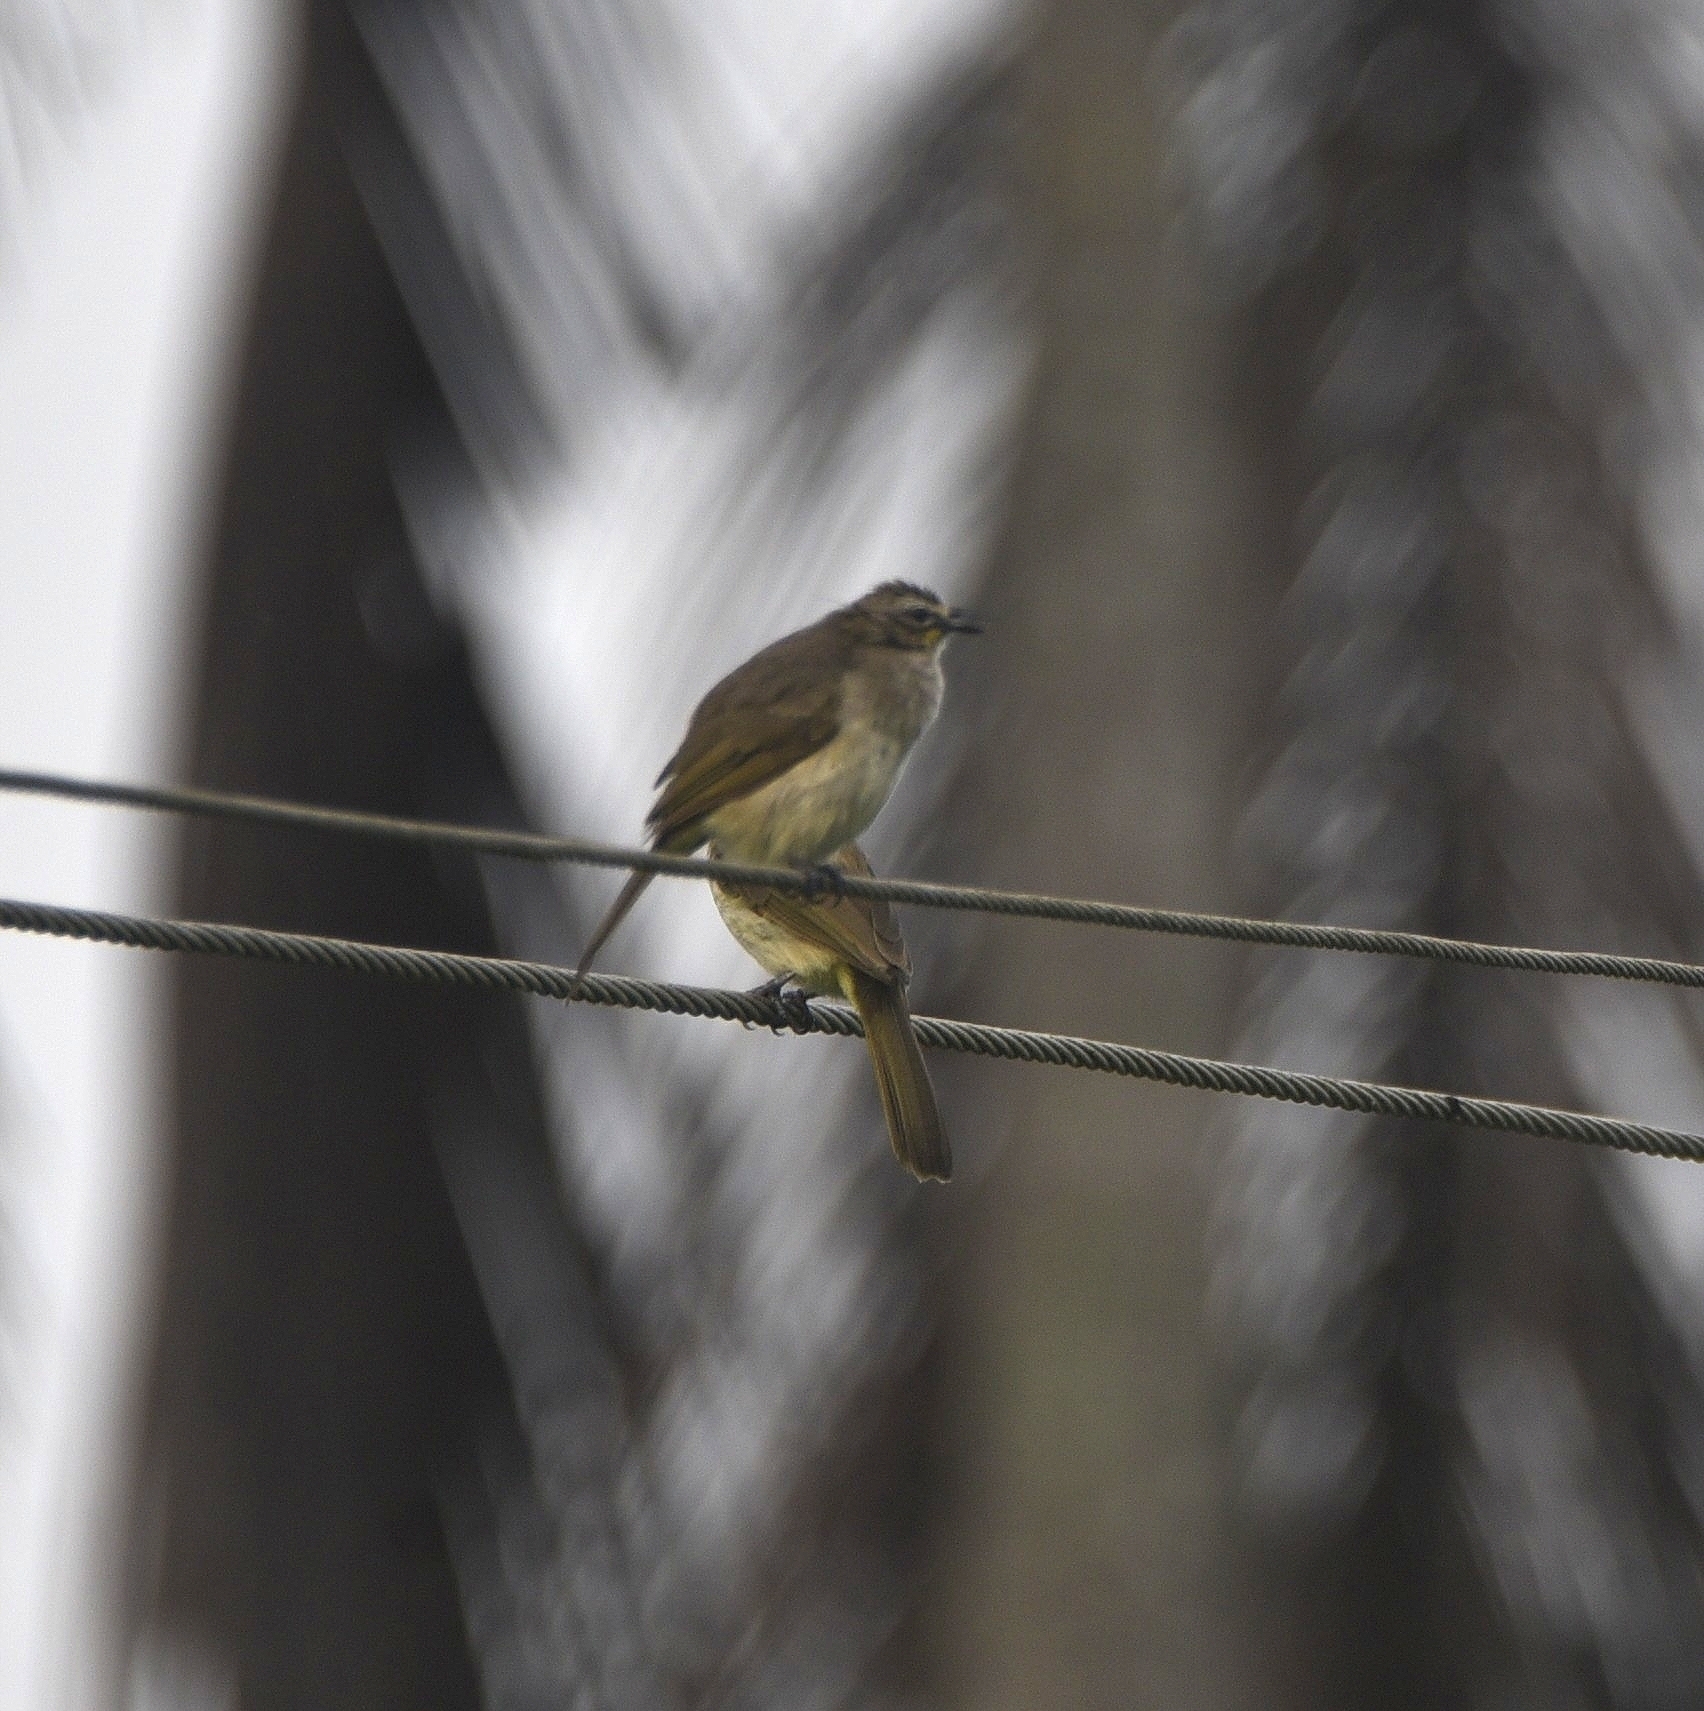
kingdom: Animalia
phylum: Chordata
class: Aves
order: Passeriformes
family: Pycnonotidae
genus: Pycnonotus
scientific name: Pycnonotus luteolus
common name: White-browed bulbul
